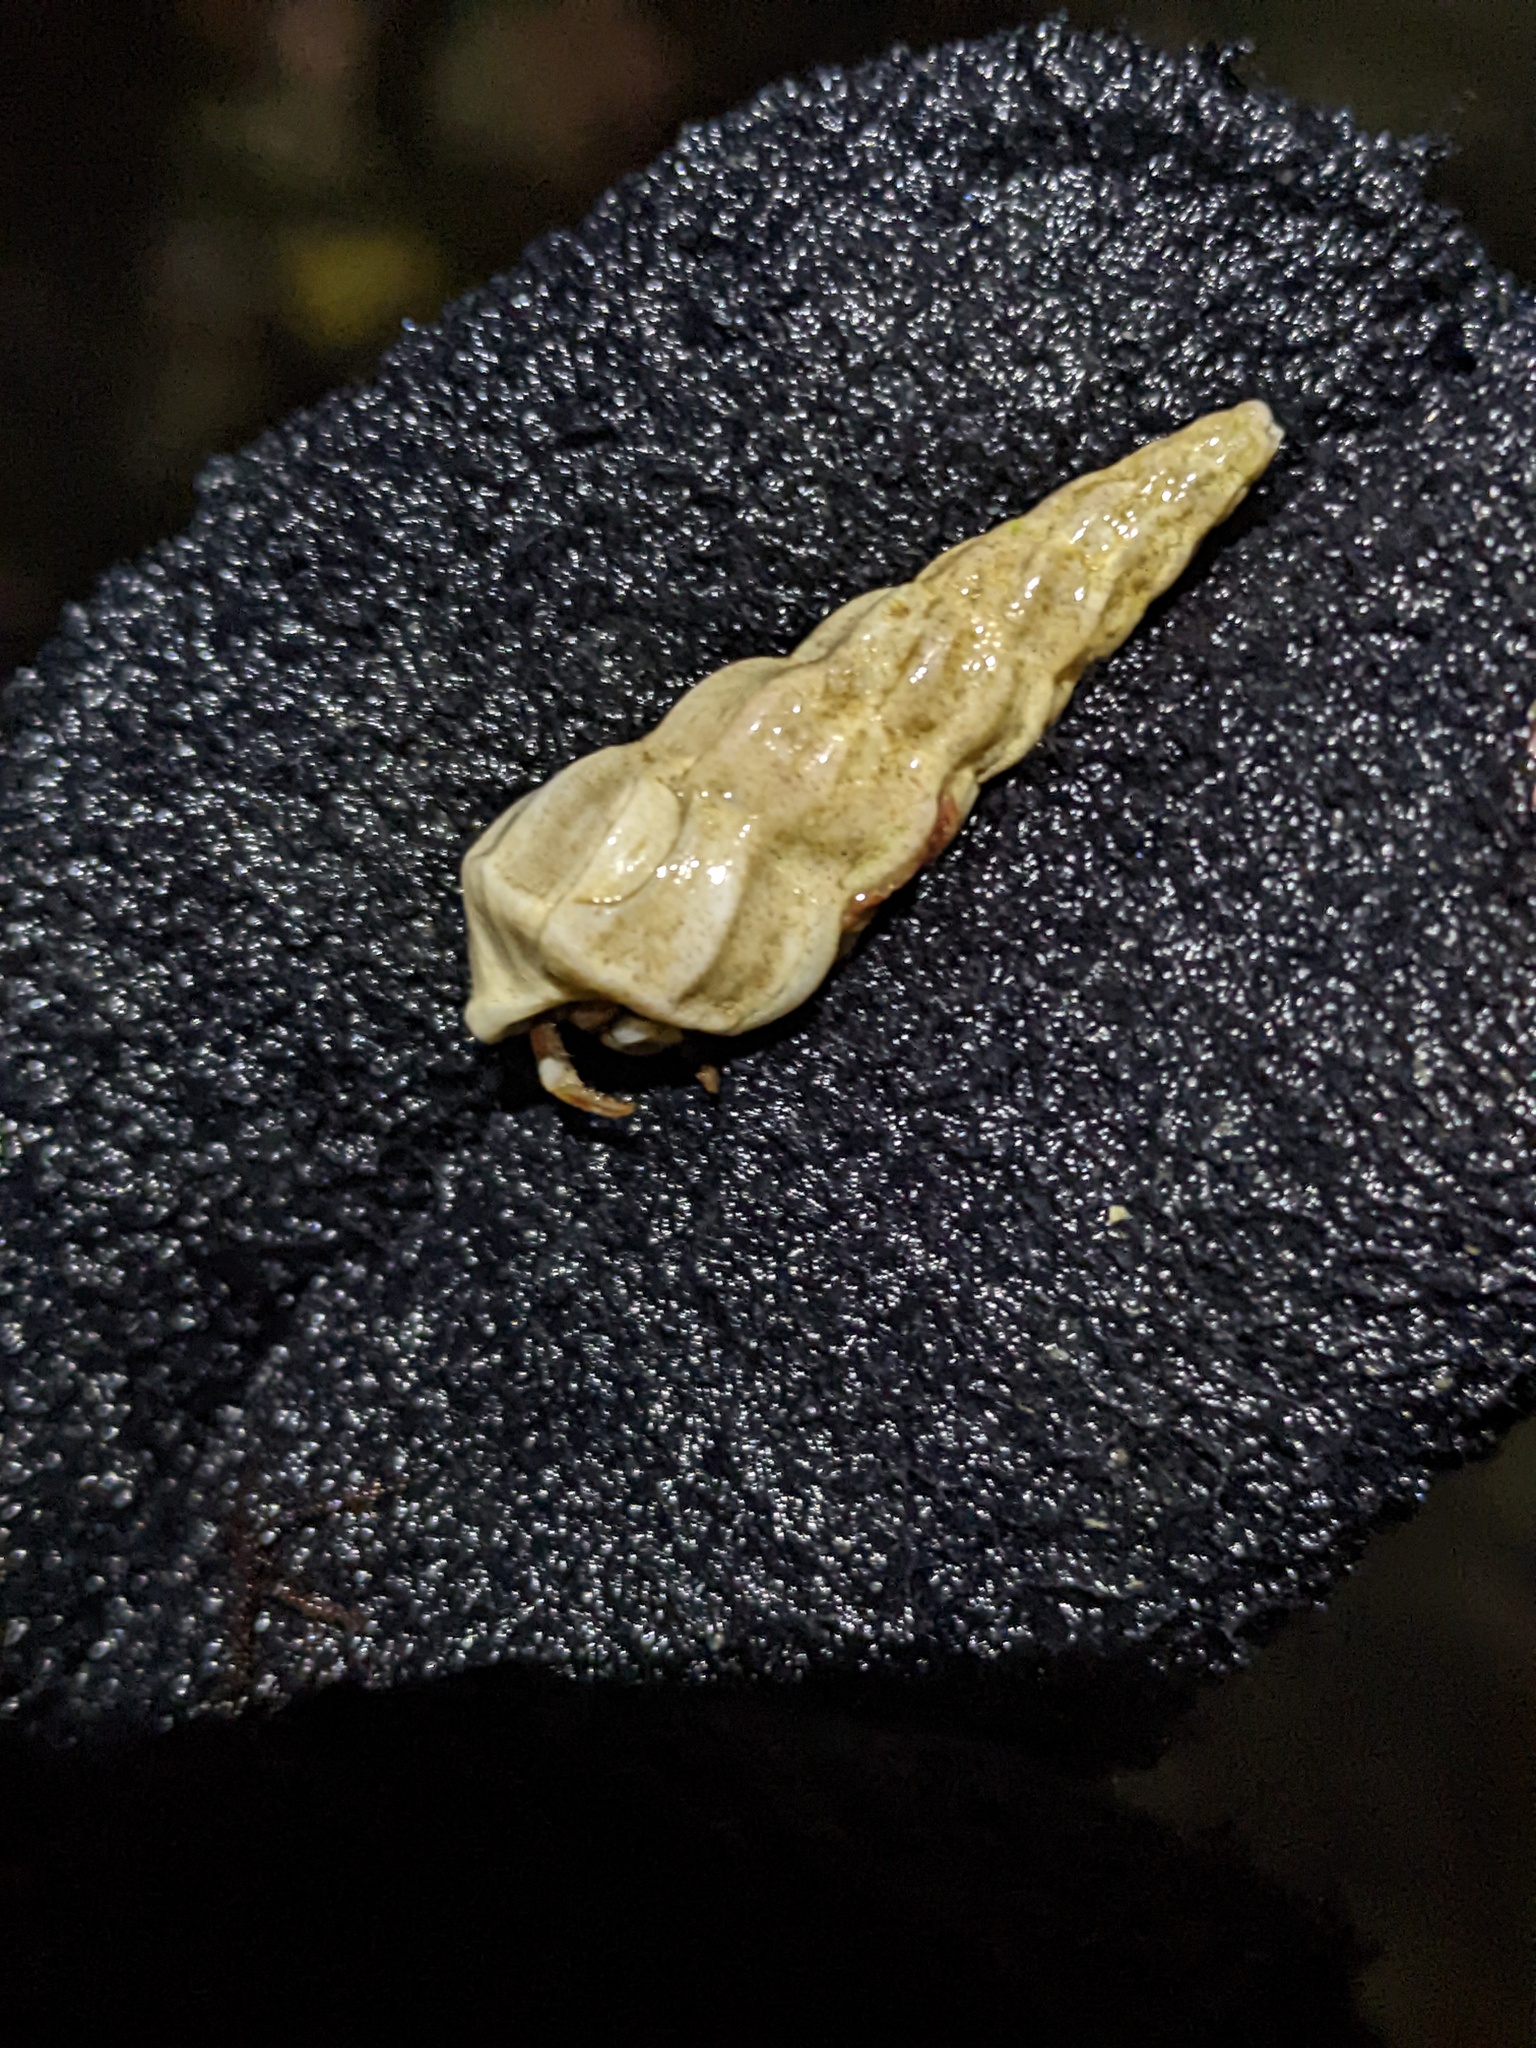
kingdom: Animalia
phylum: Mollusca
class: Gastropoda
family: Epitoniidae
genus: Opalia
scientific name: Opalia wroblewskyi
